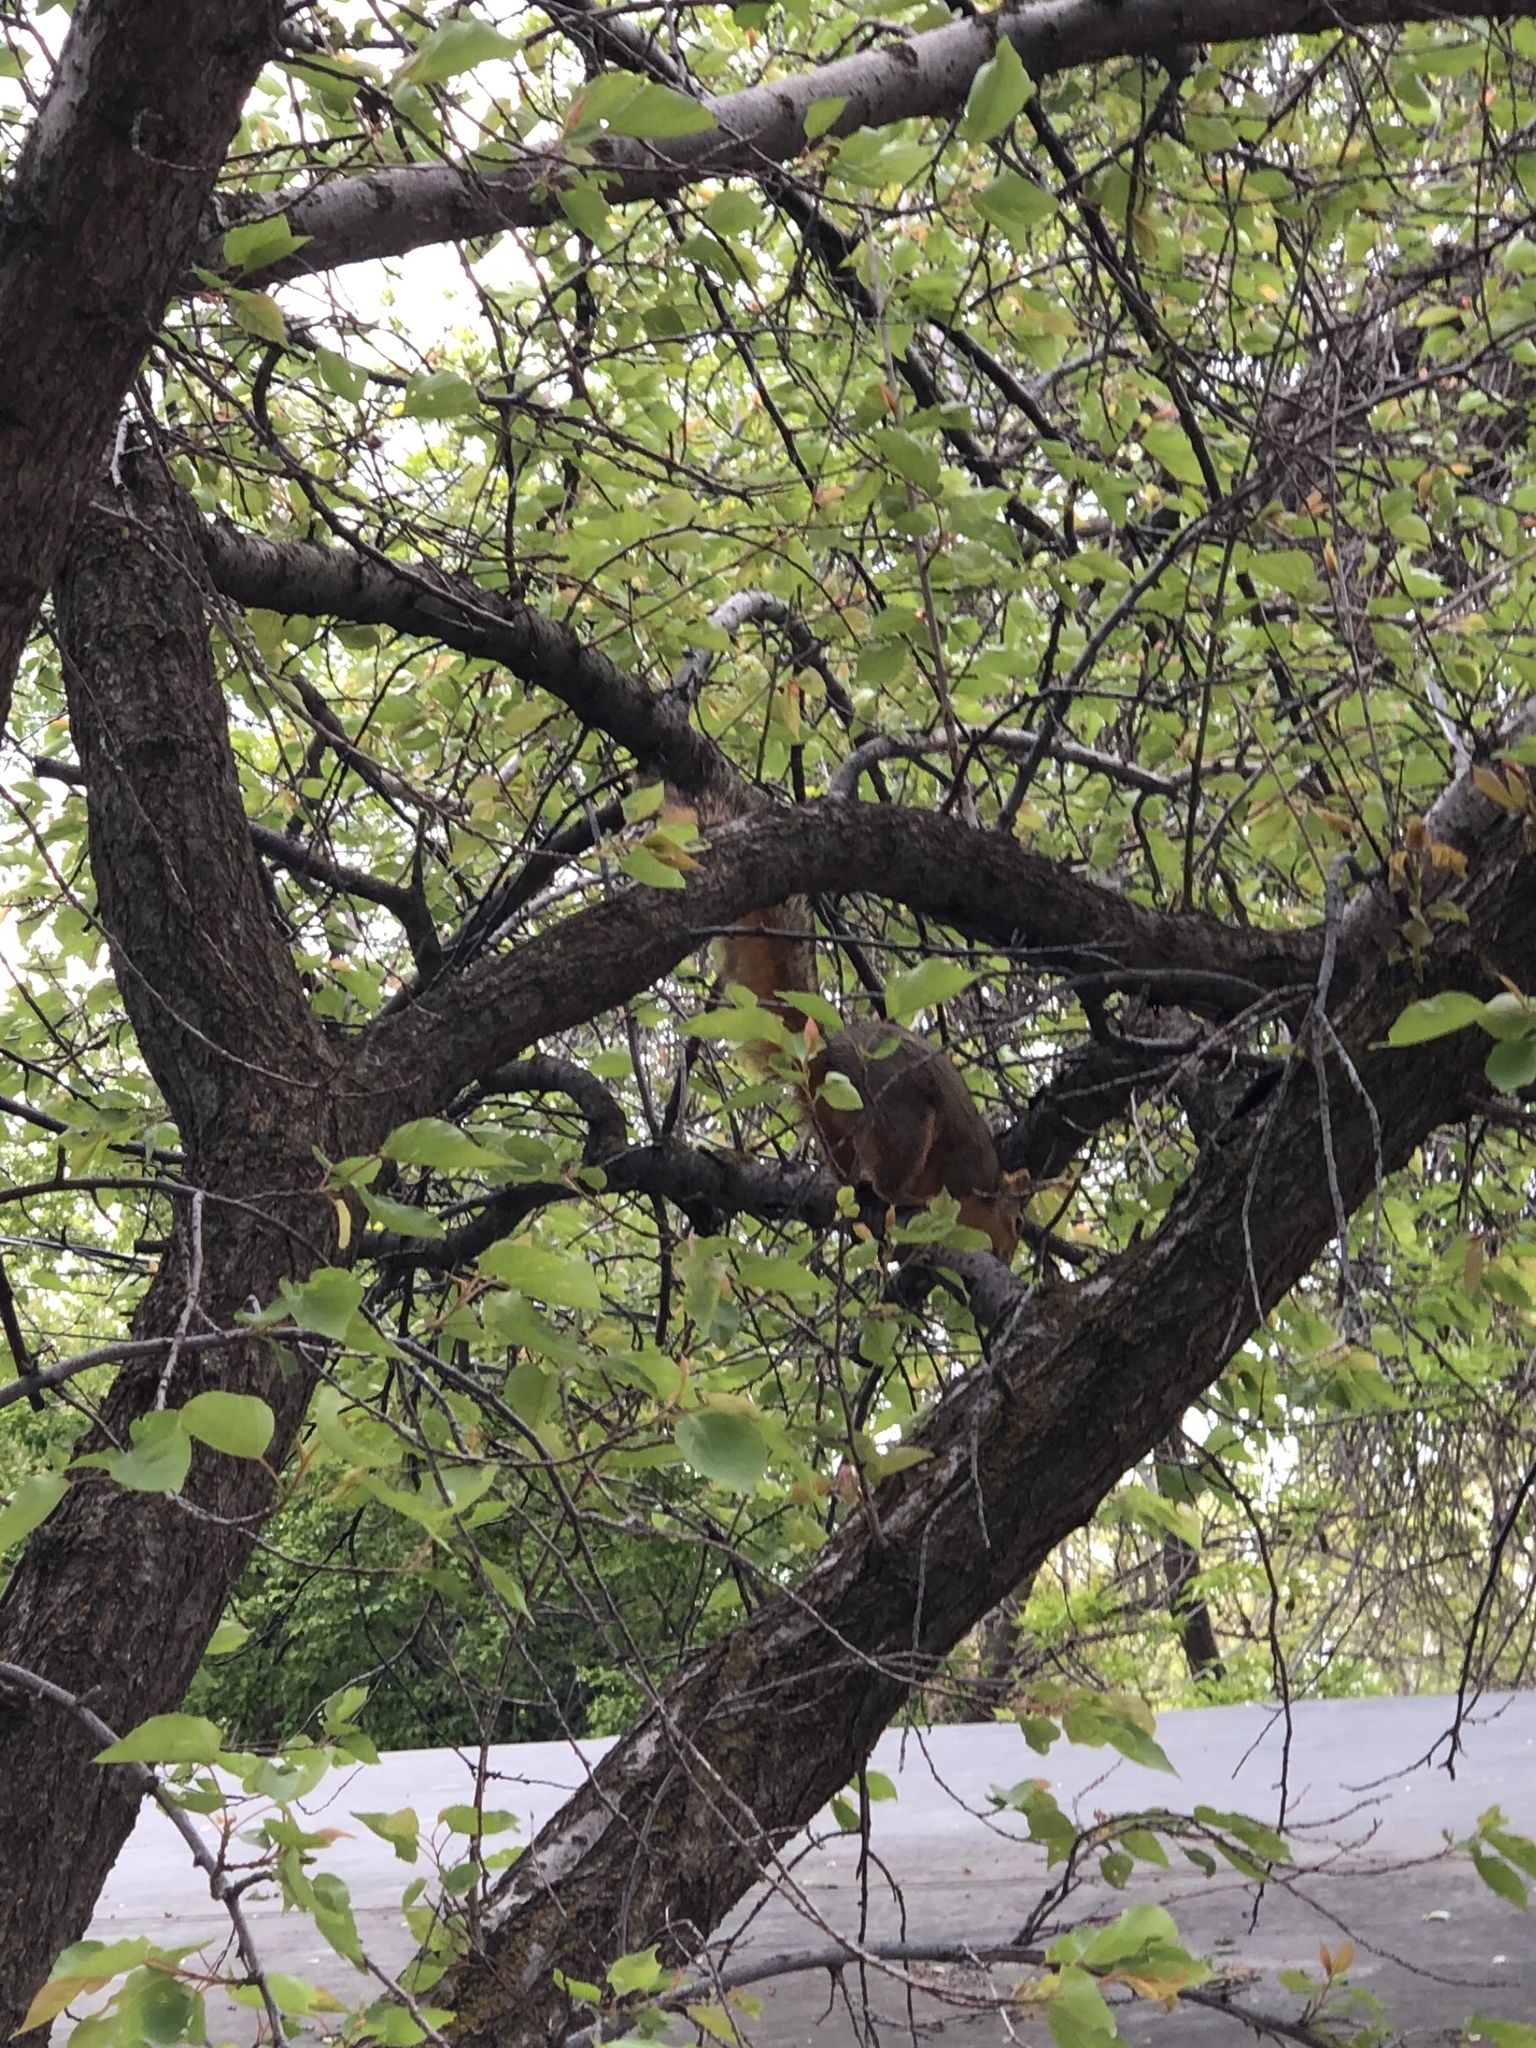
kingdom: Animalia
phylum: Chordata
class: Mammalia
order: Rodentia
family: Sciuridae
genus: Sciurus
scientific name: Sciurus niger
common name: Fox squirrel
